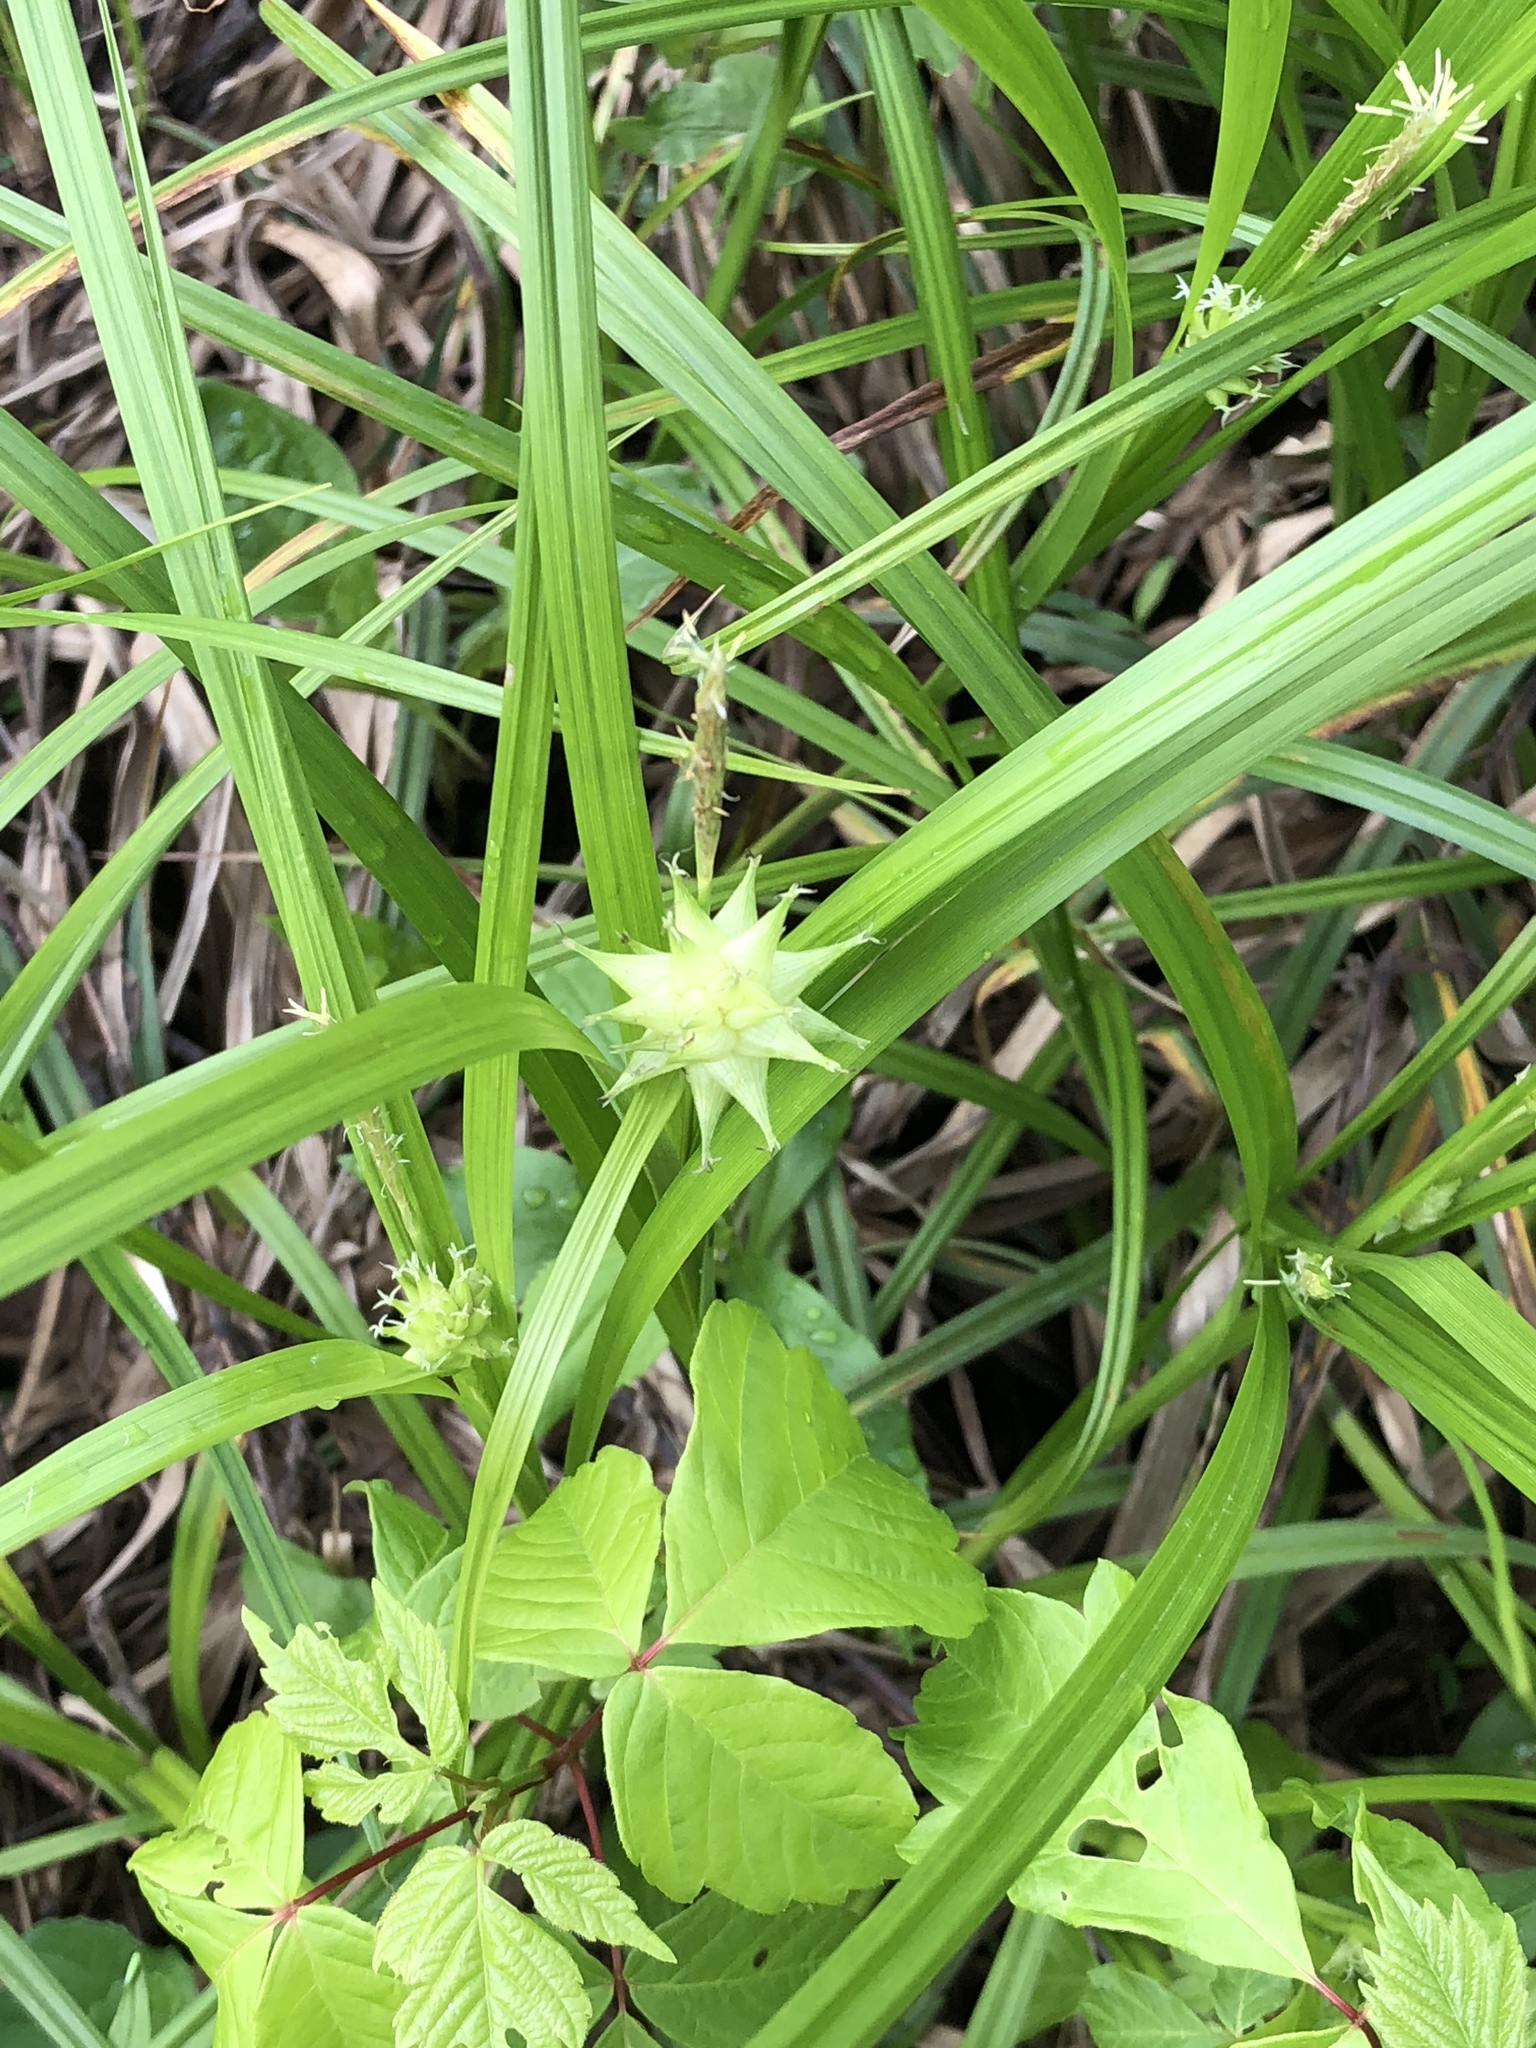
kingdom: Plantae
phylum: Tracheophyta
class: Liliopsida
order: Poales
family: Cyperaceae
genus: Carex
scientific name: Carex grayi
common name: Asa gray's sedge
